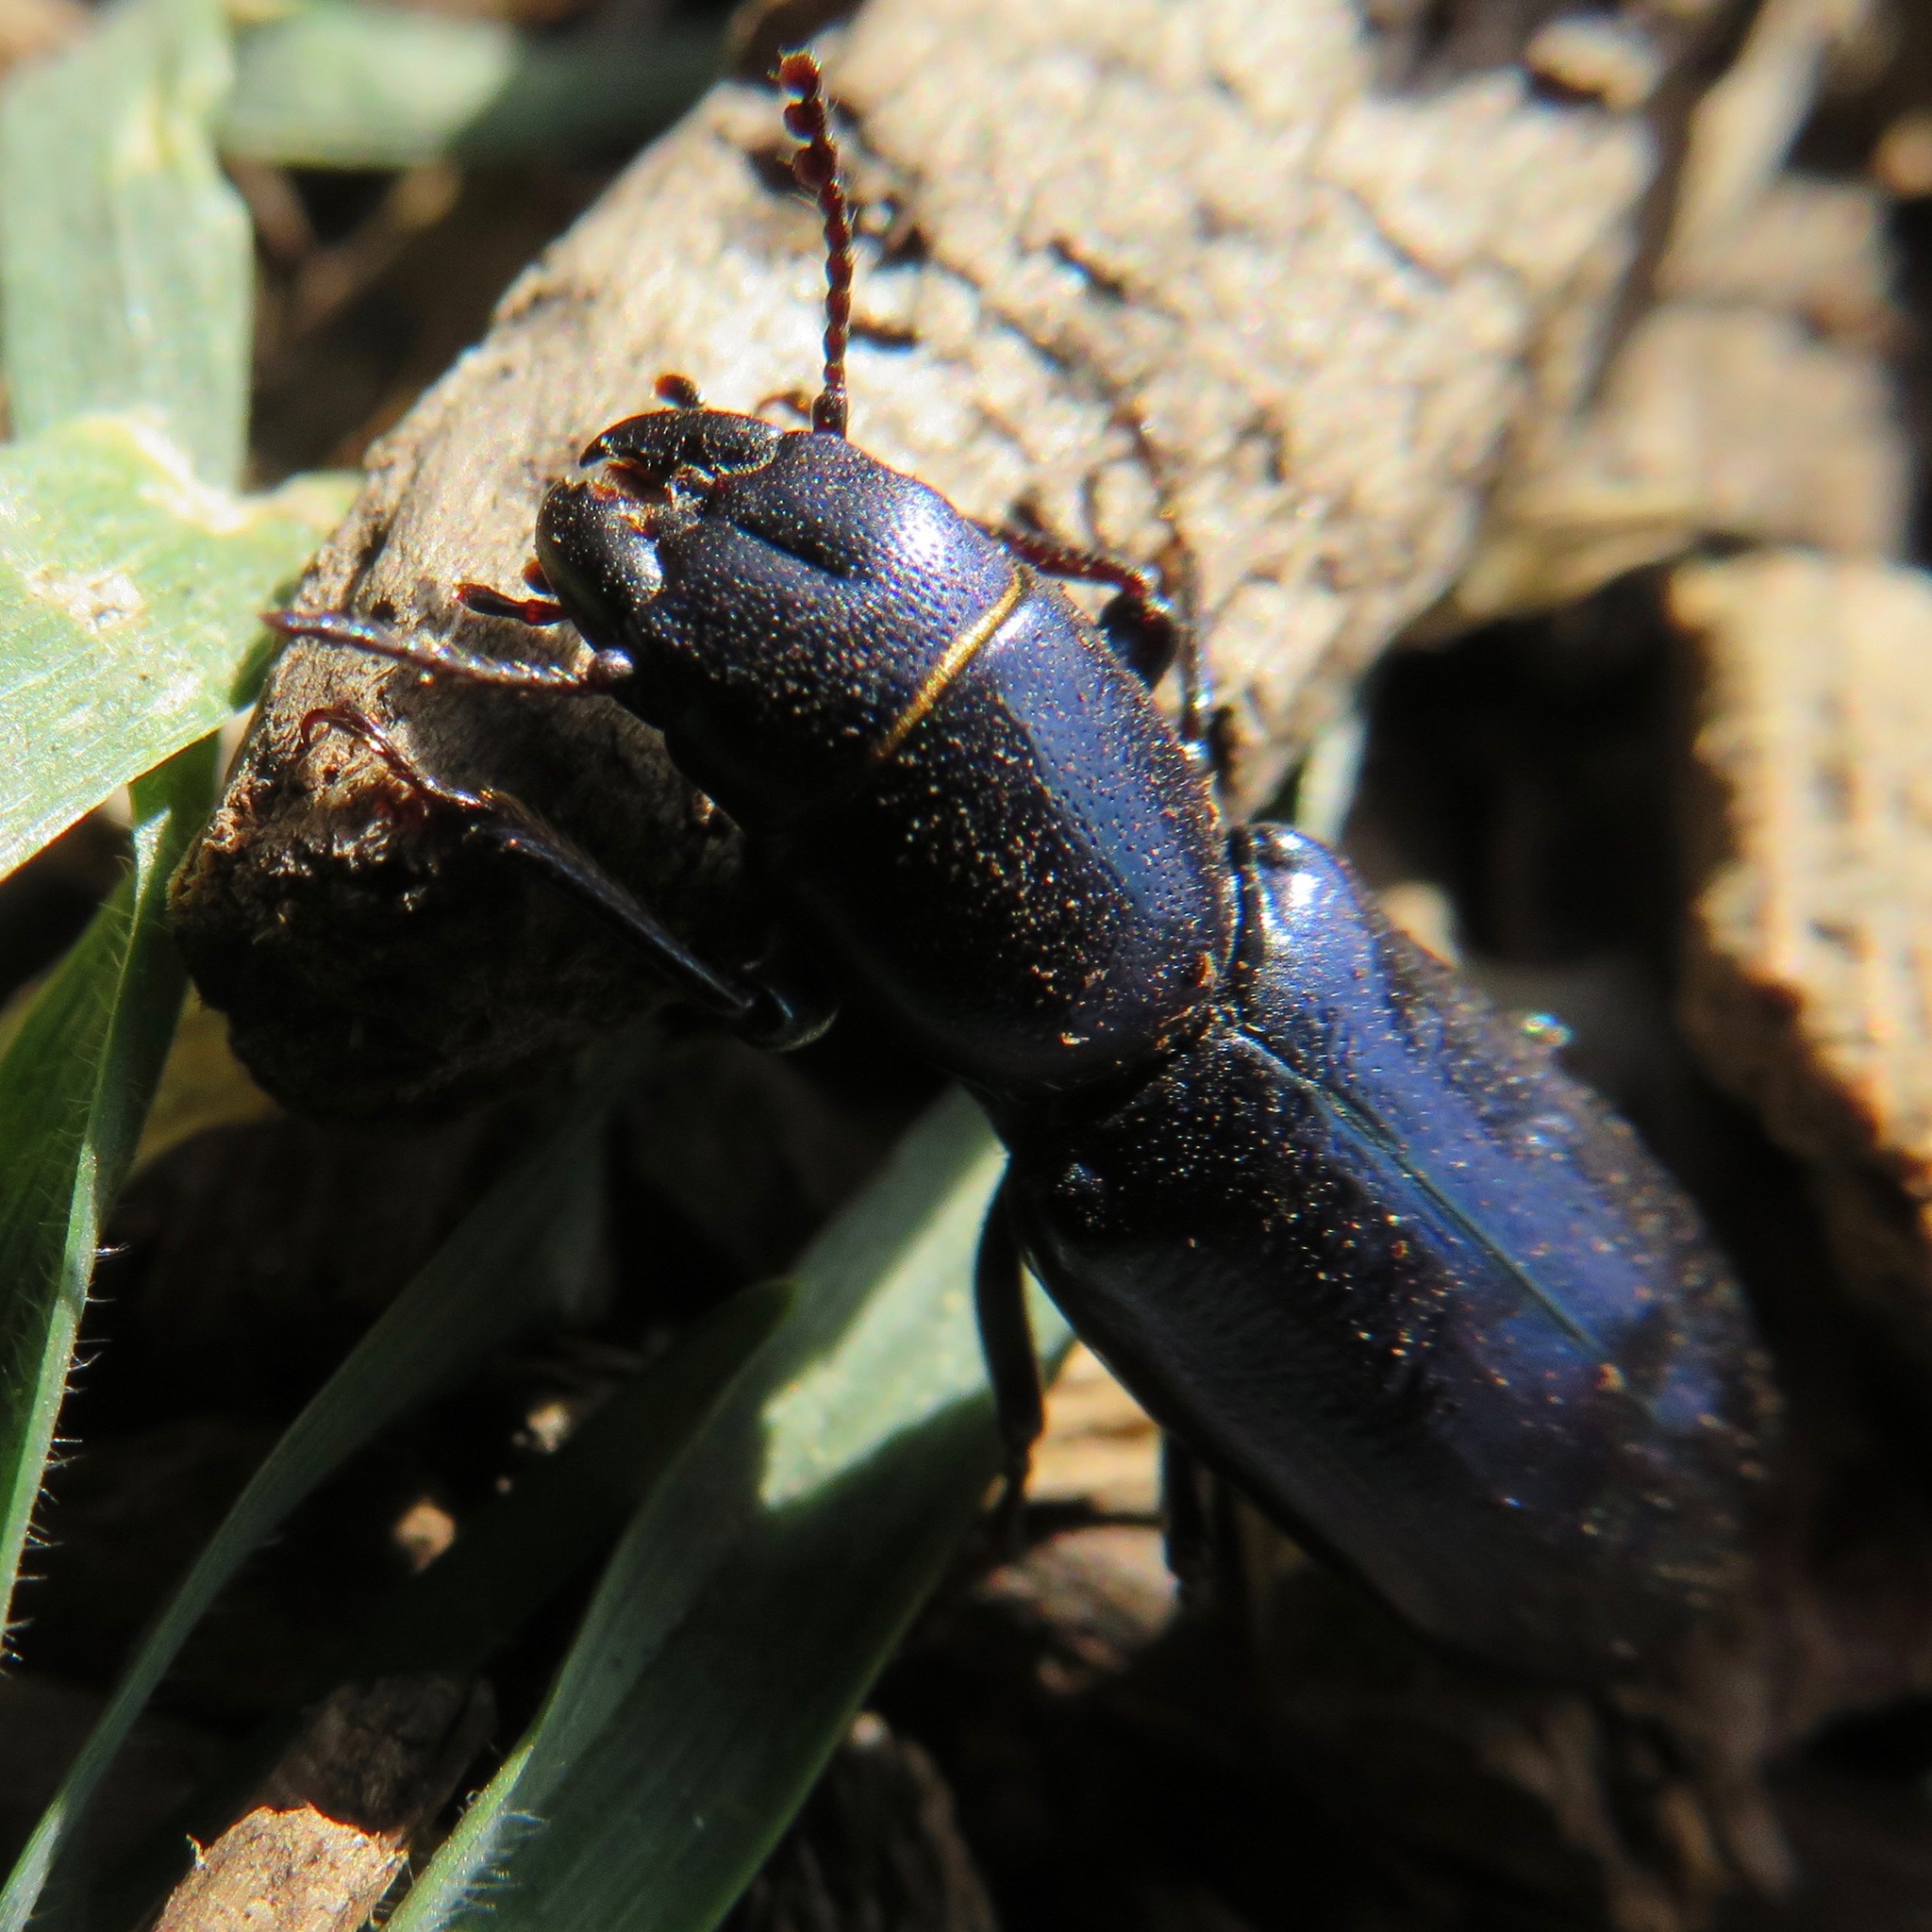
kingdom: Animalia
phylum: Arthropoda
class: Insecta
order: Coleoptera
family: Trogossitidae
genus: Temnoscheila
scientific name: Temnoscheila
